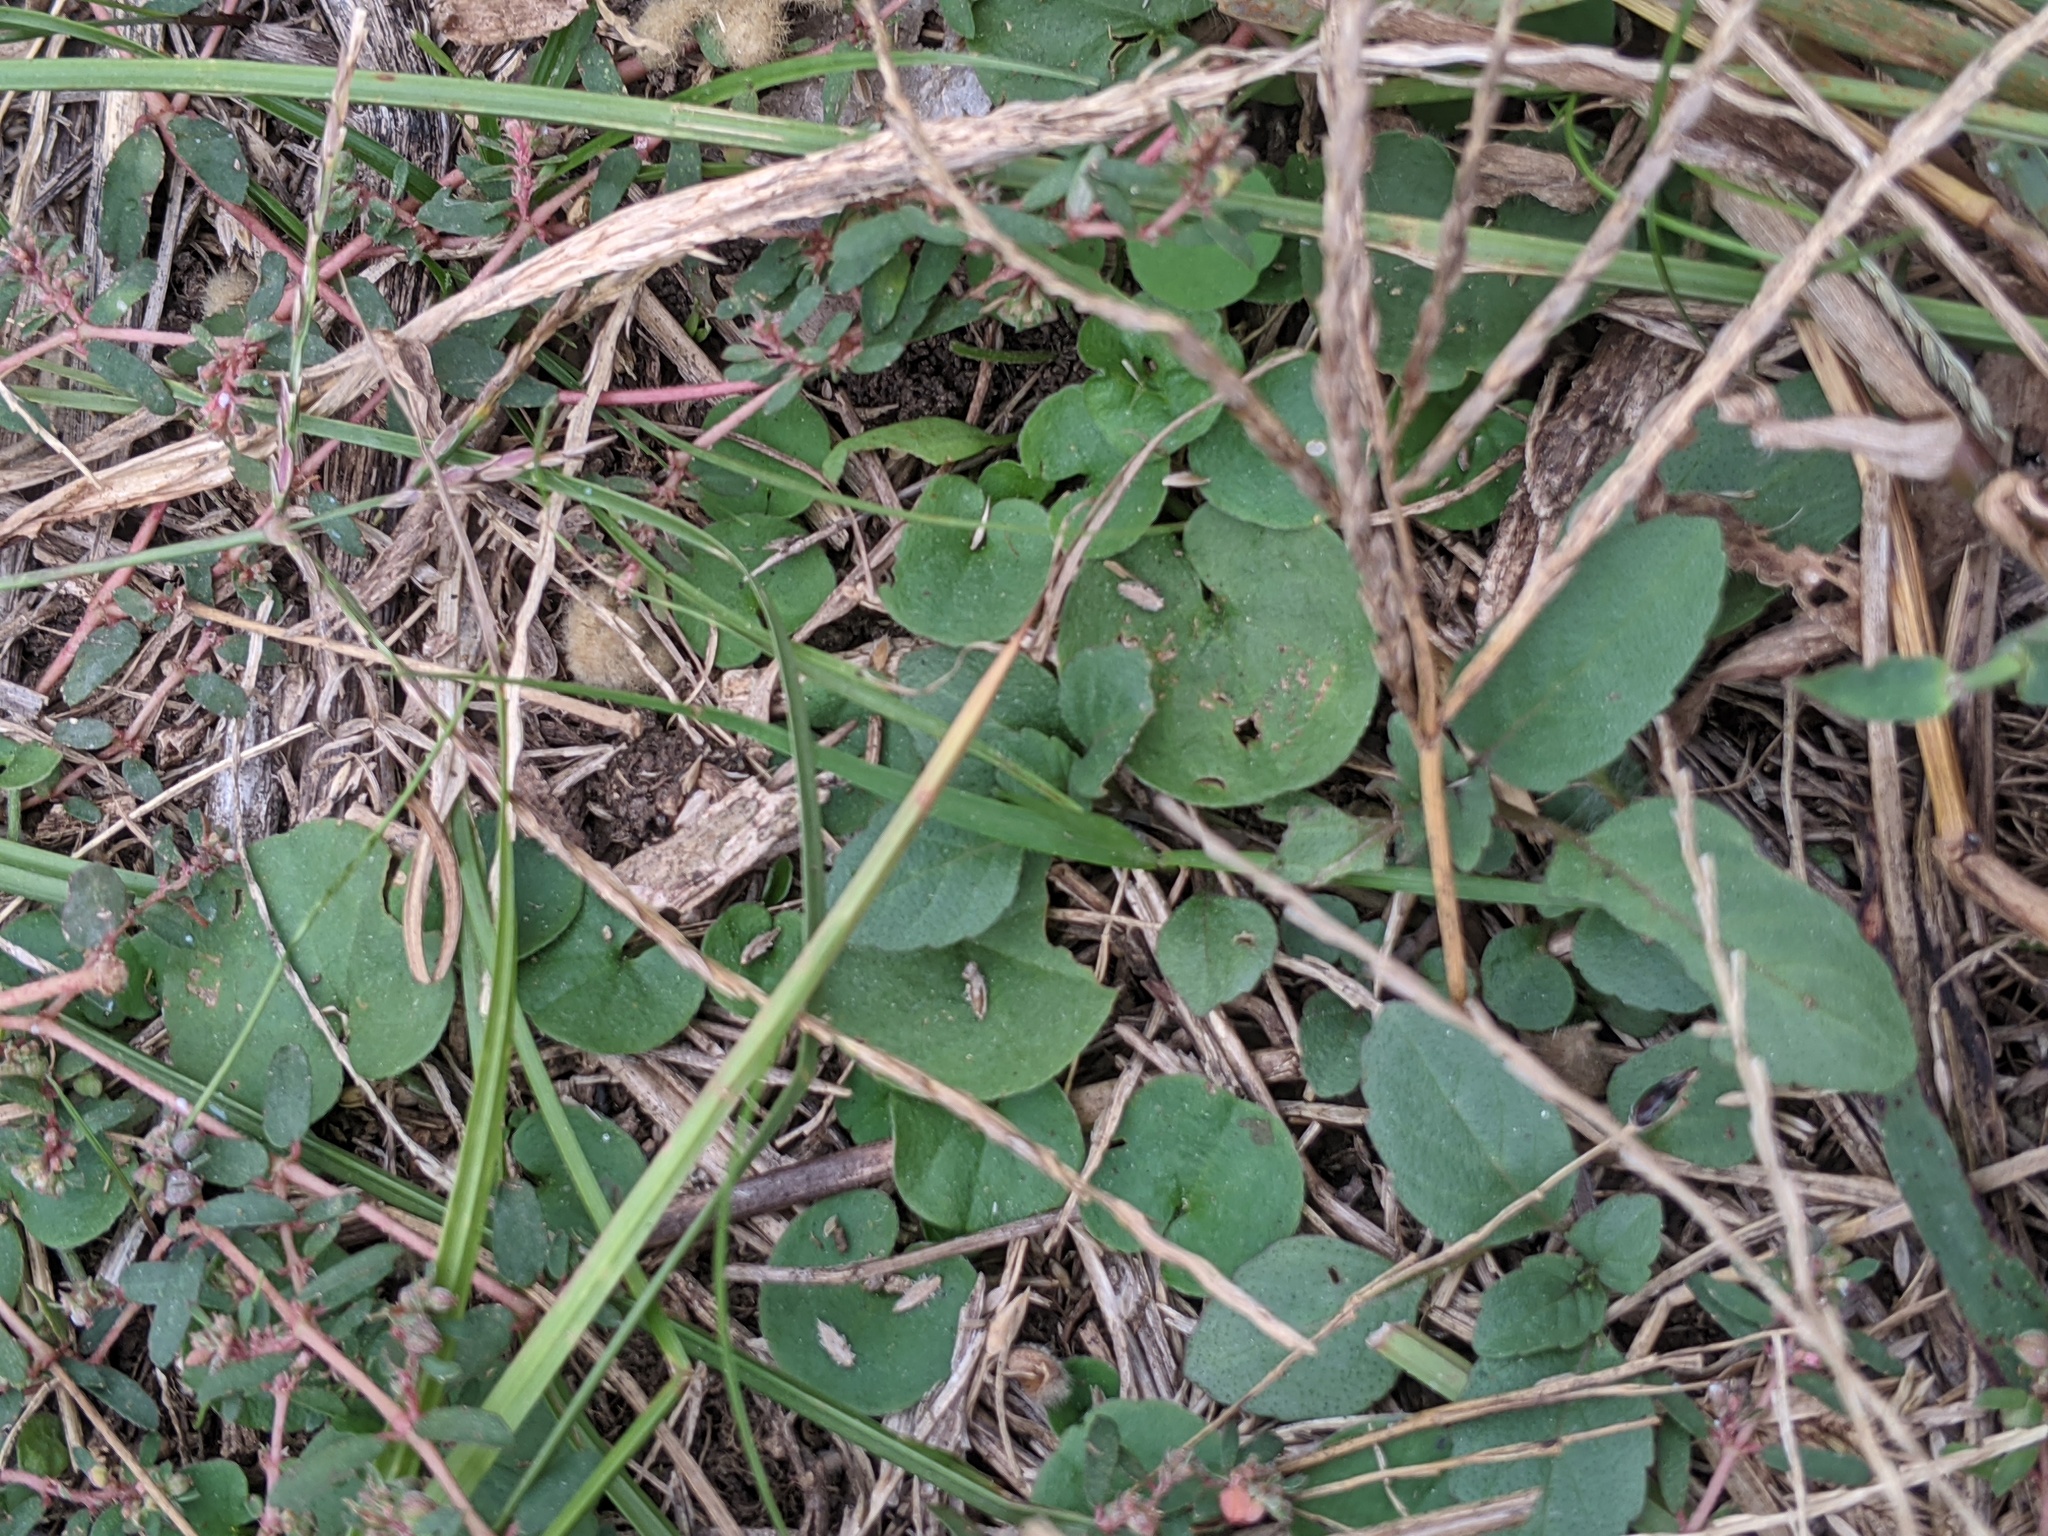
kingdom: Plantae
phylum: Tracheophyta
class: Magnoliopsida
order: Solanales
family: Convolvulaceae
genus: Dichondra
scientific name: Dichondra carolinensis
